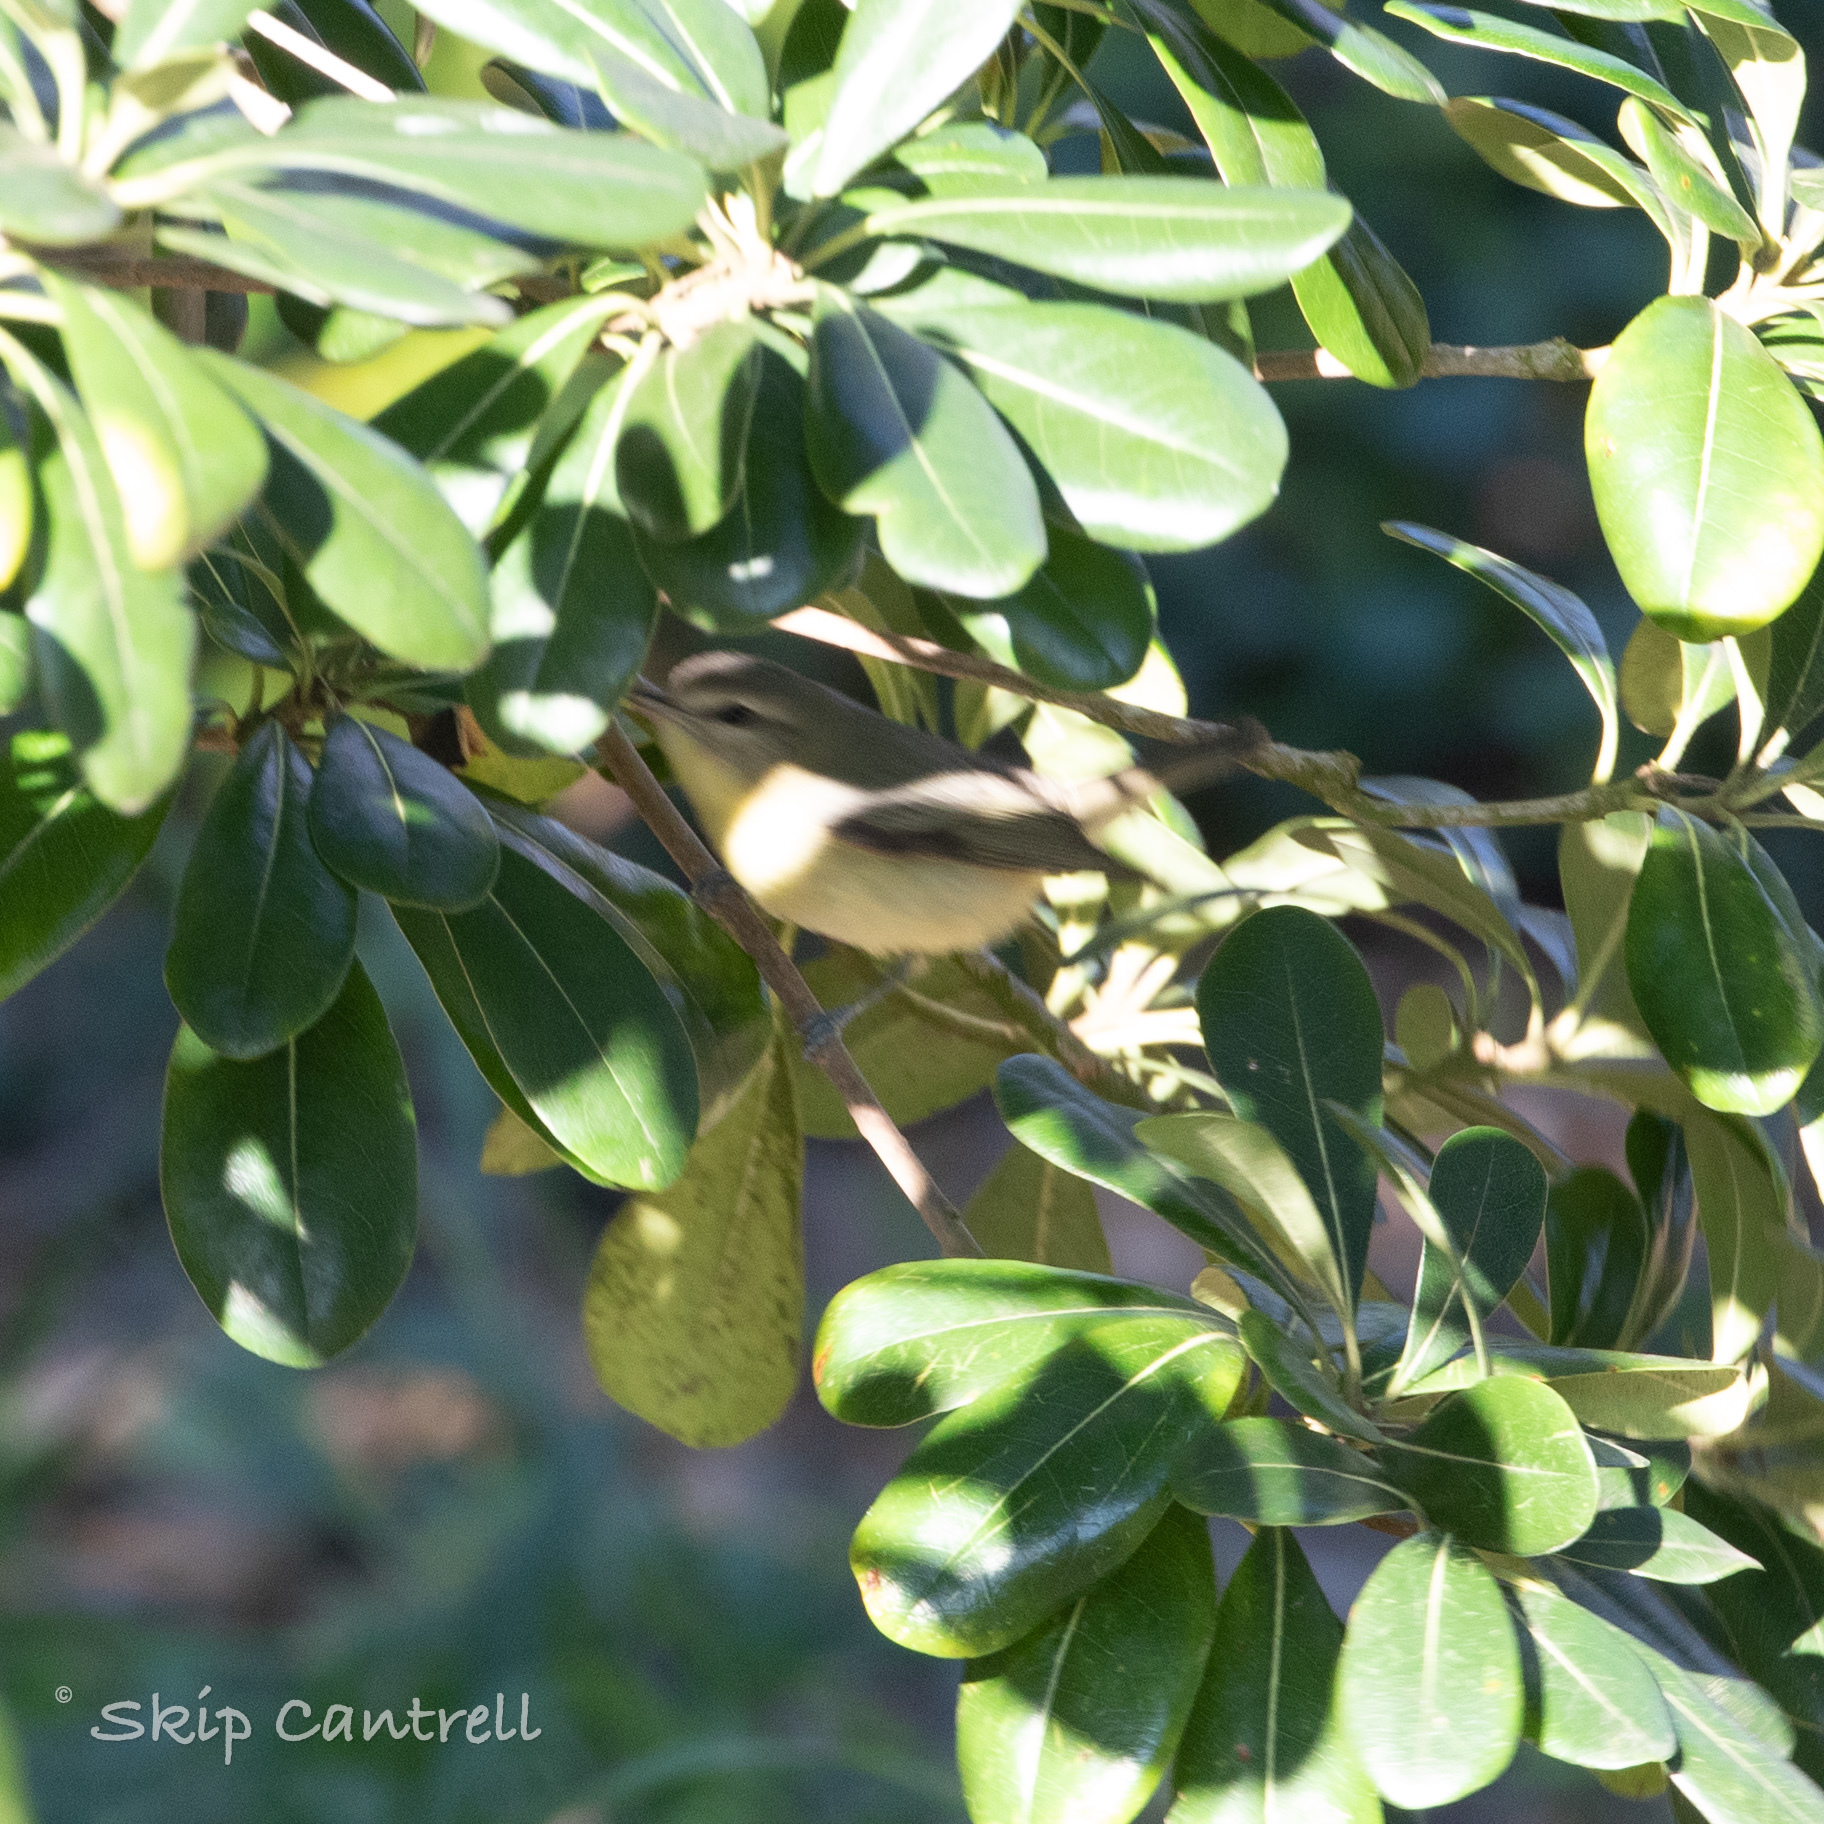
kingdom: Animalia
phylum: Chordata
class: Aves
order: Passeriformes
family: Vireonidae
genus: Vireo
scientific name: Vireo philadelphicus
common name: Philadelphia vireo
